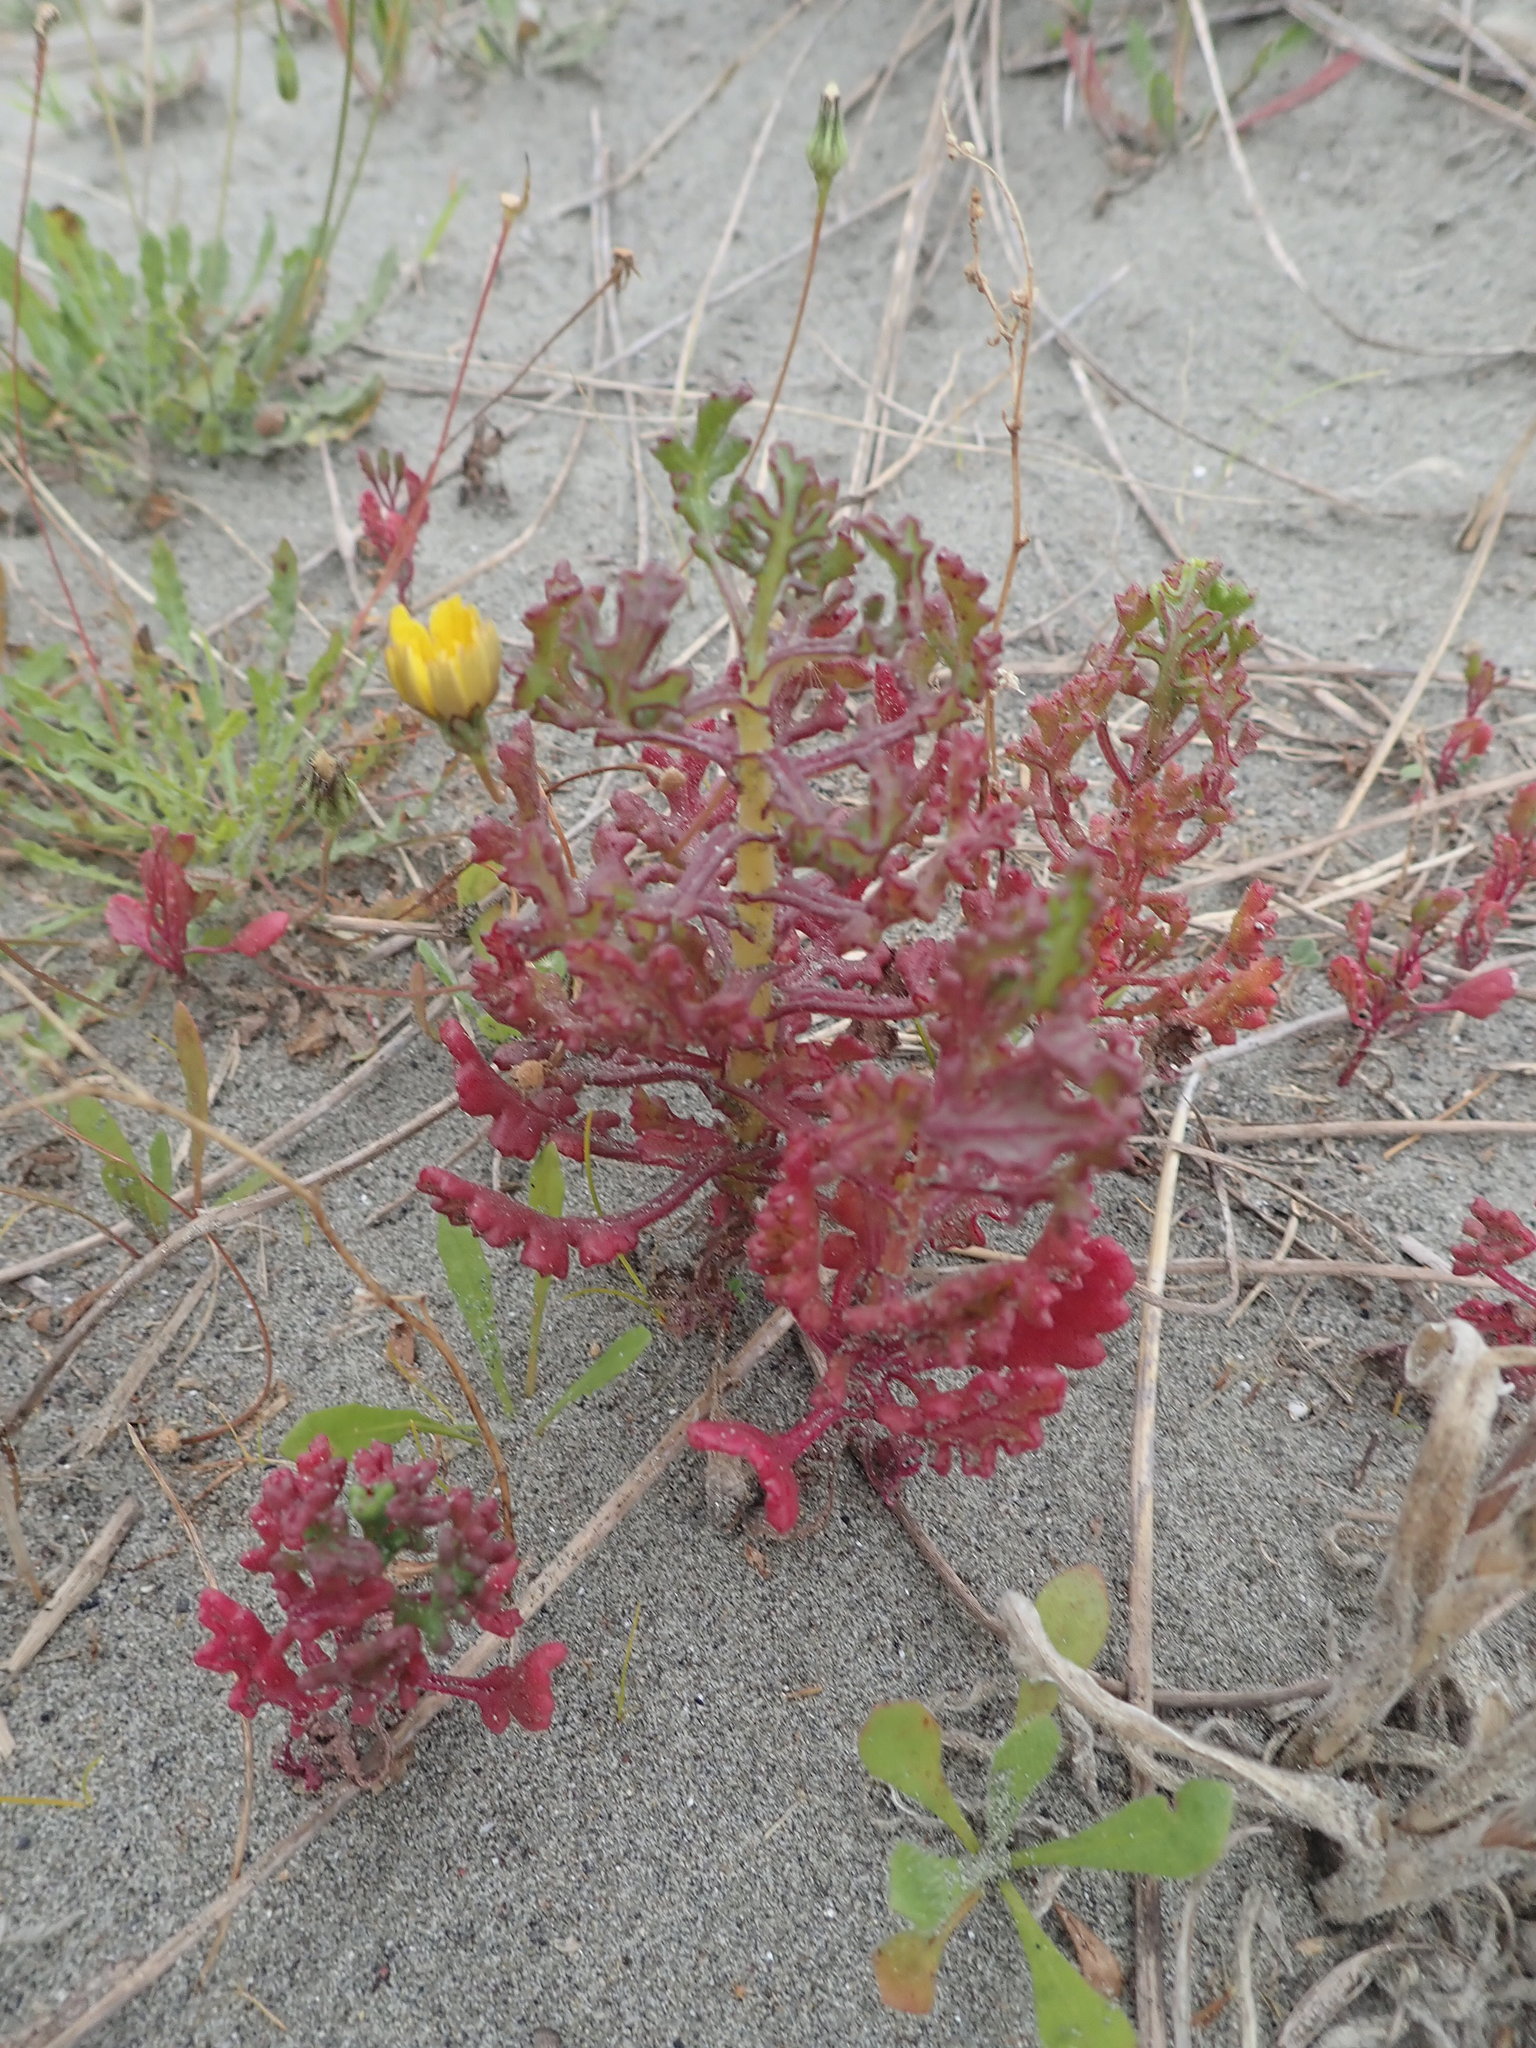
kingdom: Plantae
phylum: Tracheophyta
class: Magnoliopsida
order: Asterales
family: Asteraceae
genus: Senecio
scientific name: Senecio elegans
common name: Purple groundsel
